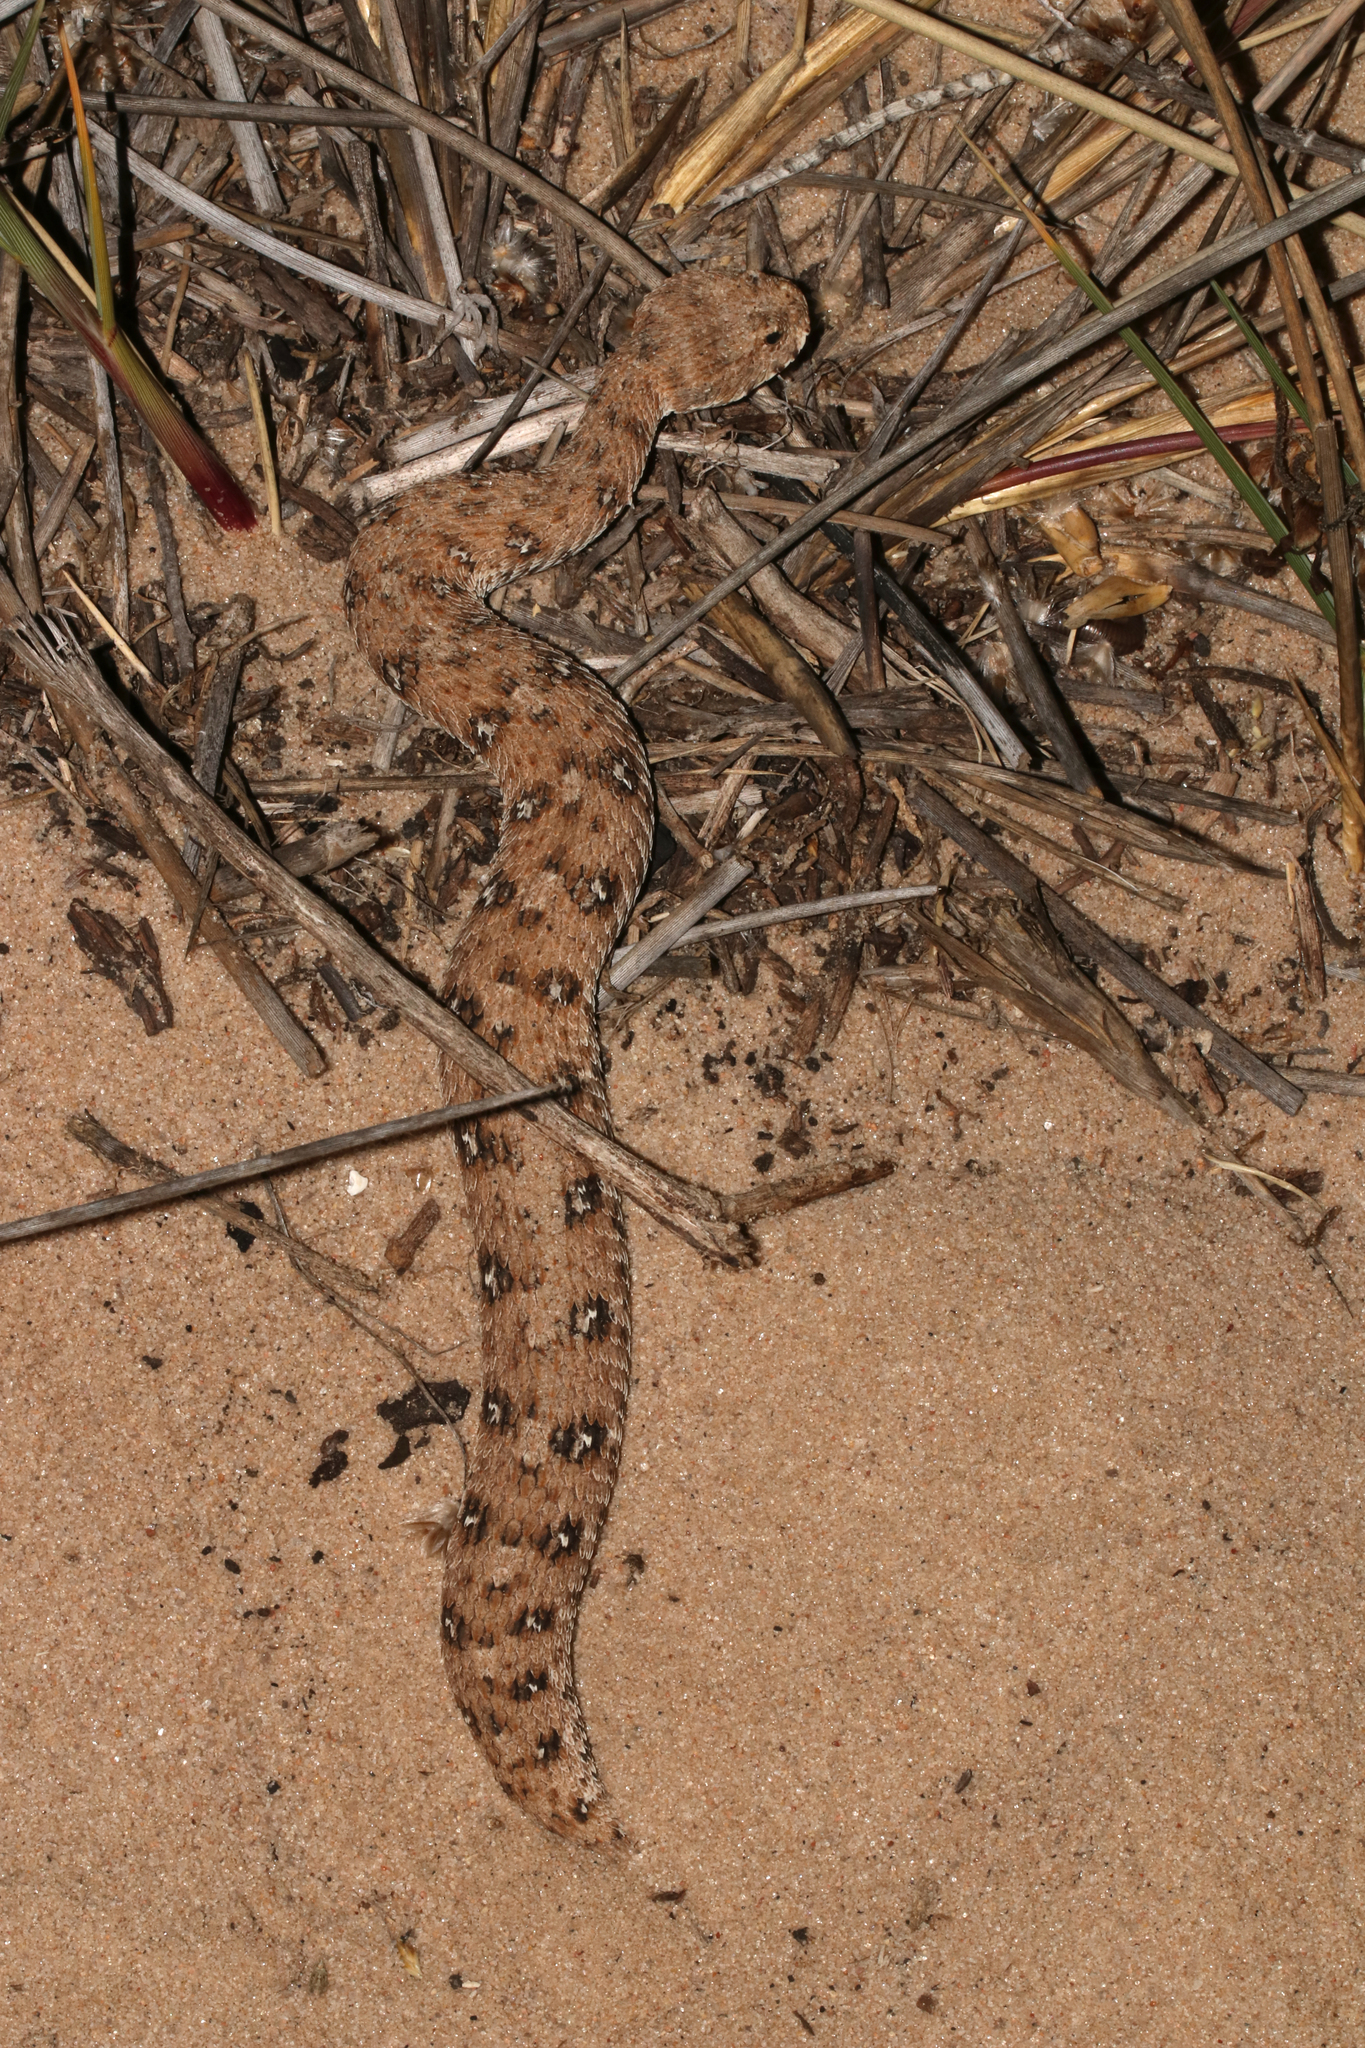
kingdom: Animalia
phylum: Chordata
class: Squamata
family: Viperidae
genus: Bitis
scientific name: Bitis schneideri
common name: Namaqua dwarf adder
